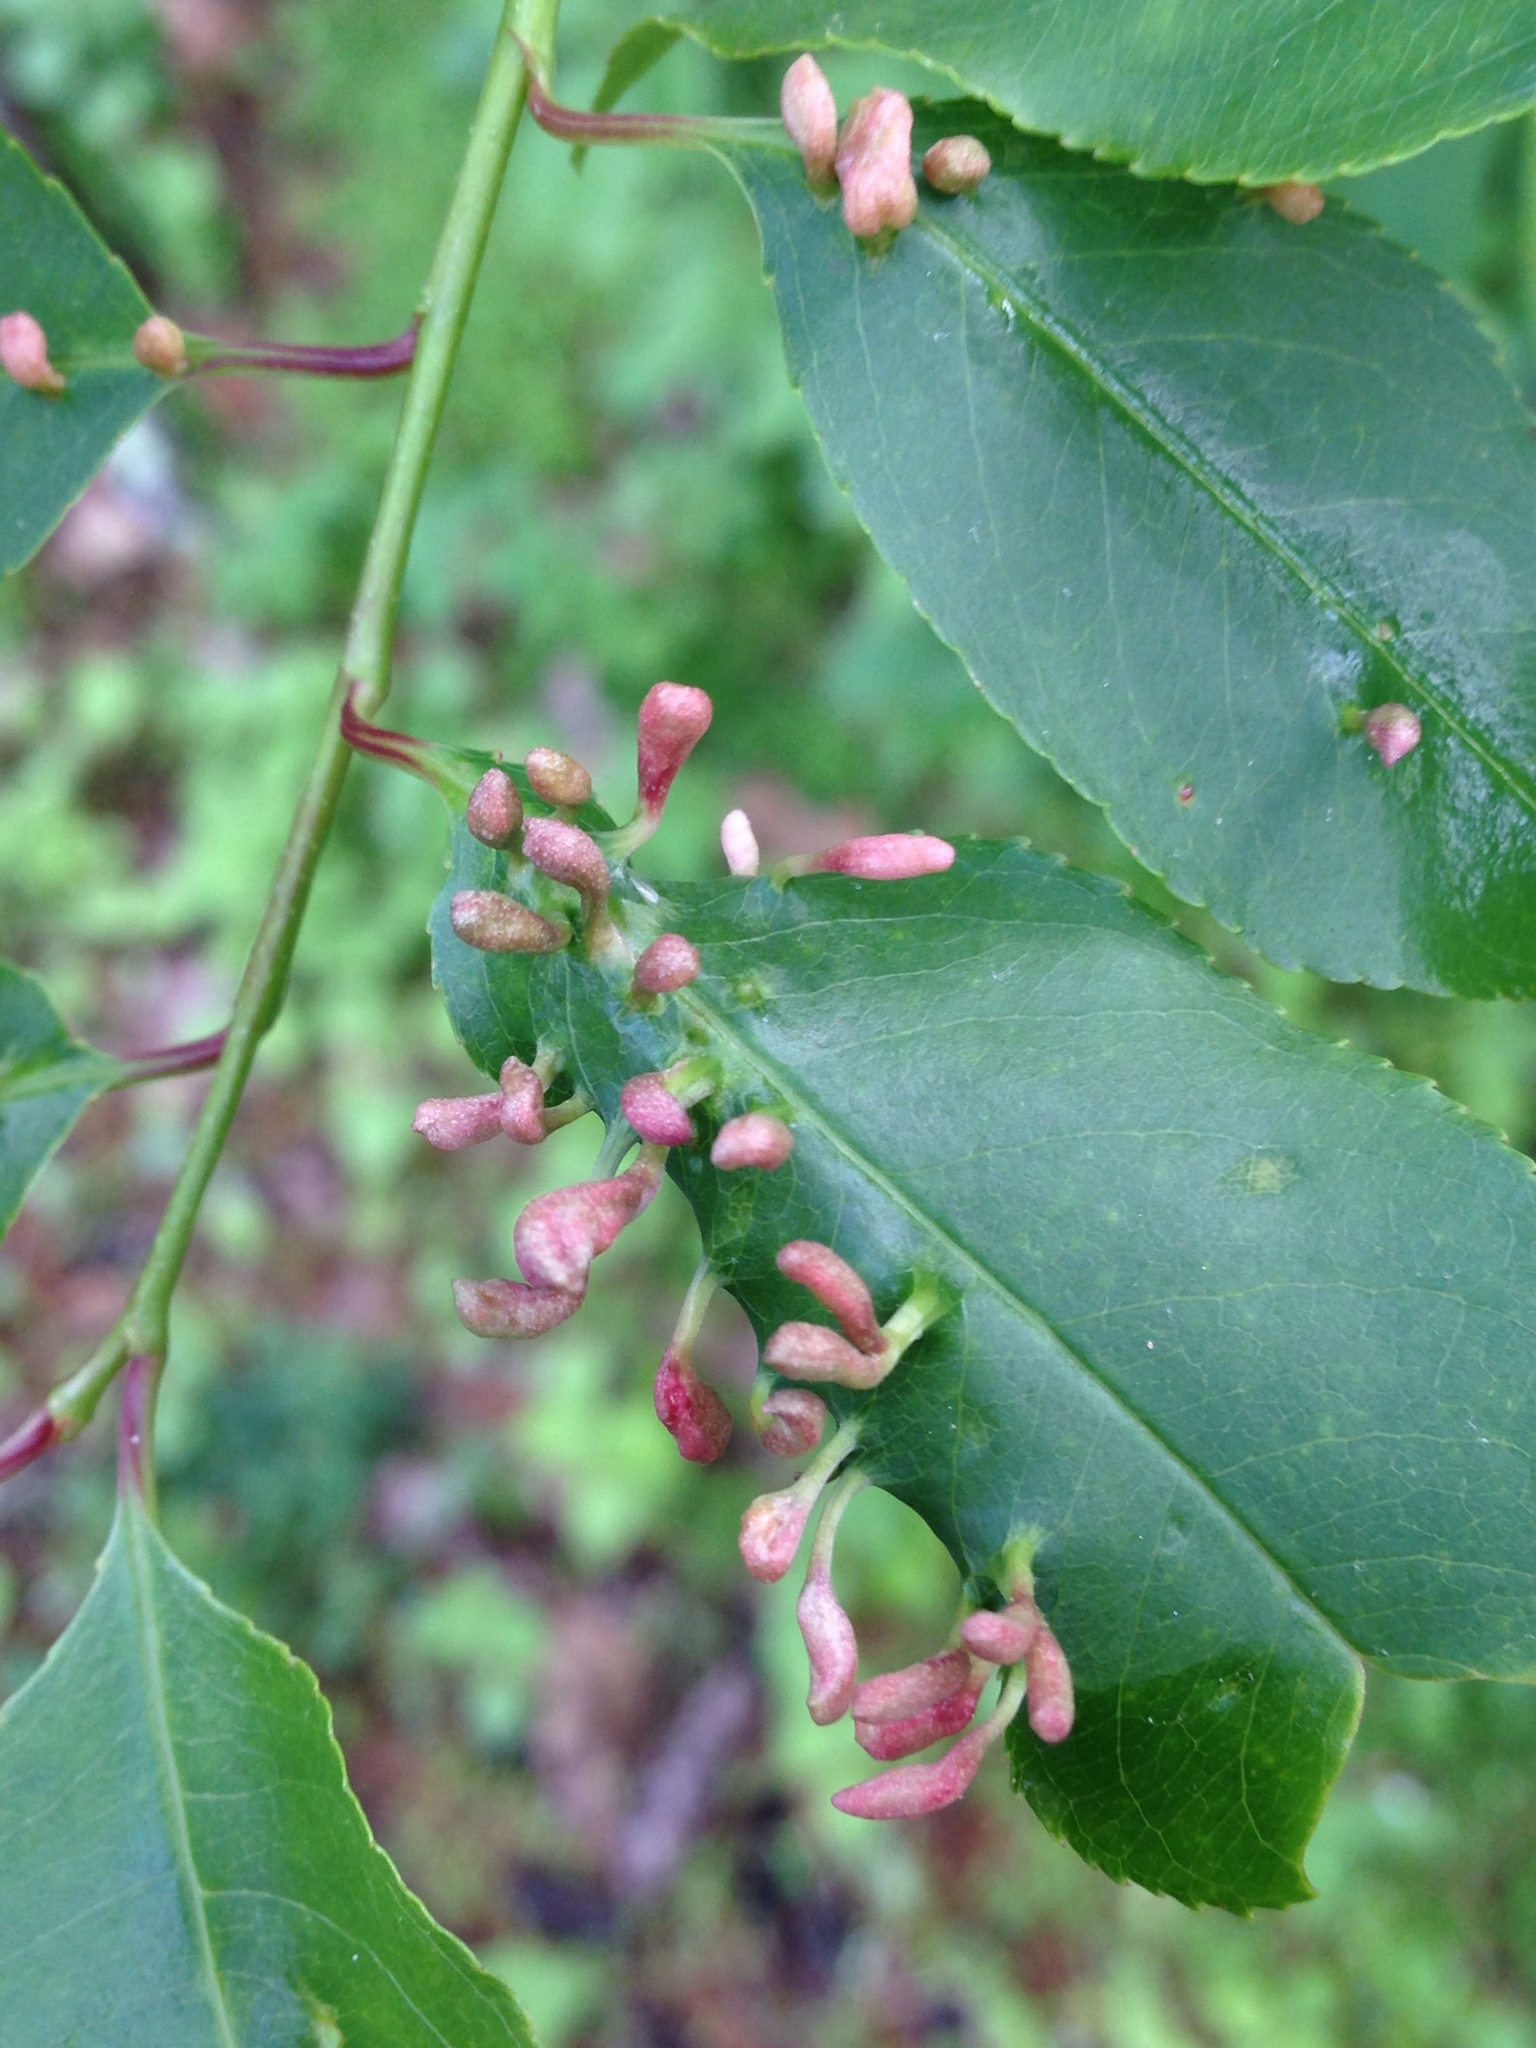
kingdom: Animalia
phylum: Arthropoda
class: Arachnida
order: Trombidiformes
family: Eriophyidae
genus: Eriophyes
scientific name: Eriophyes
